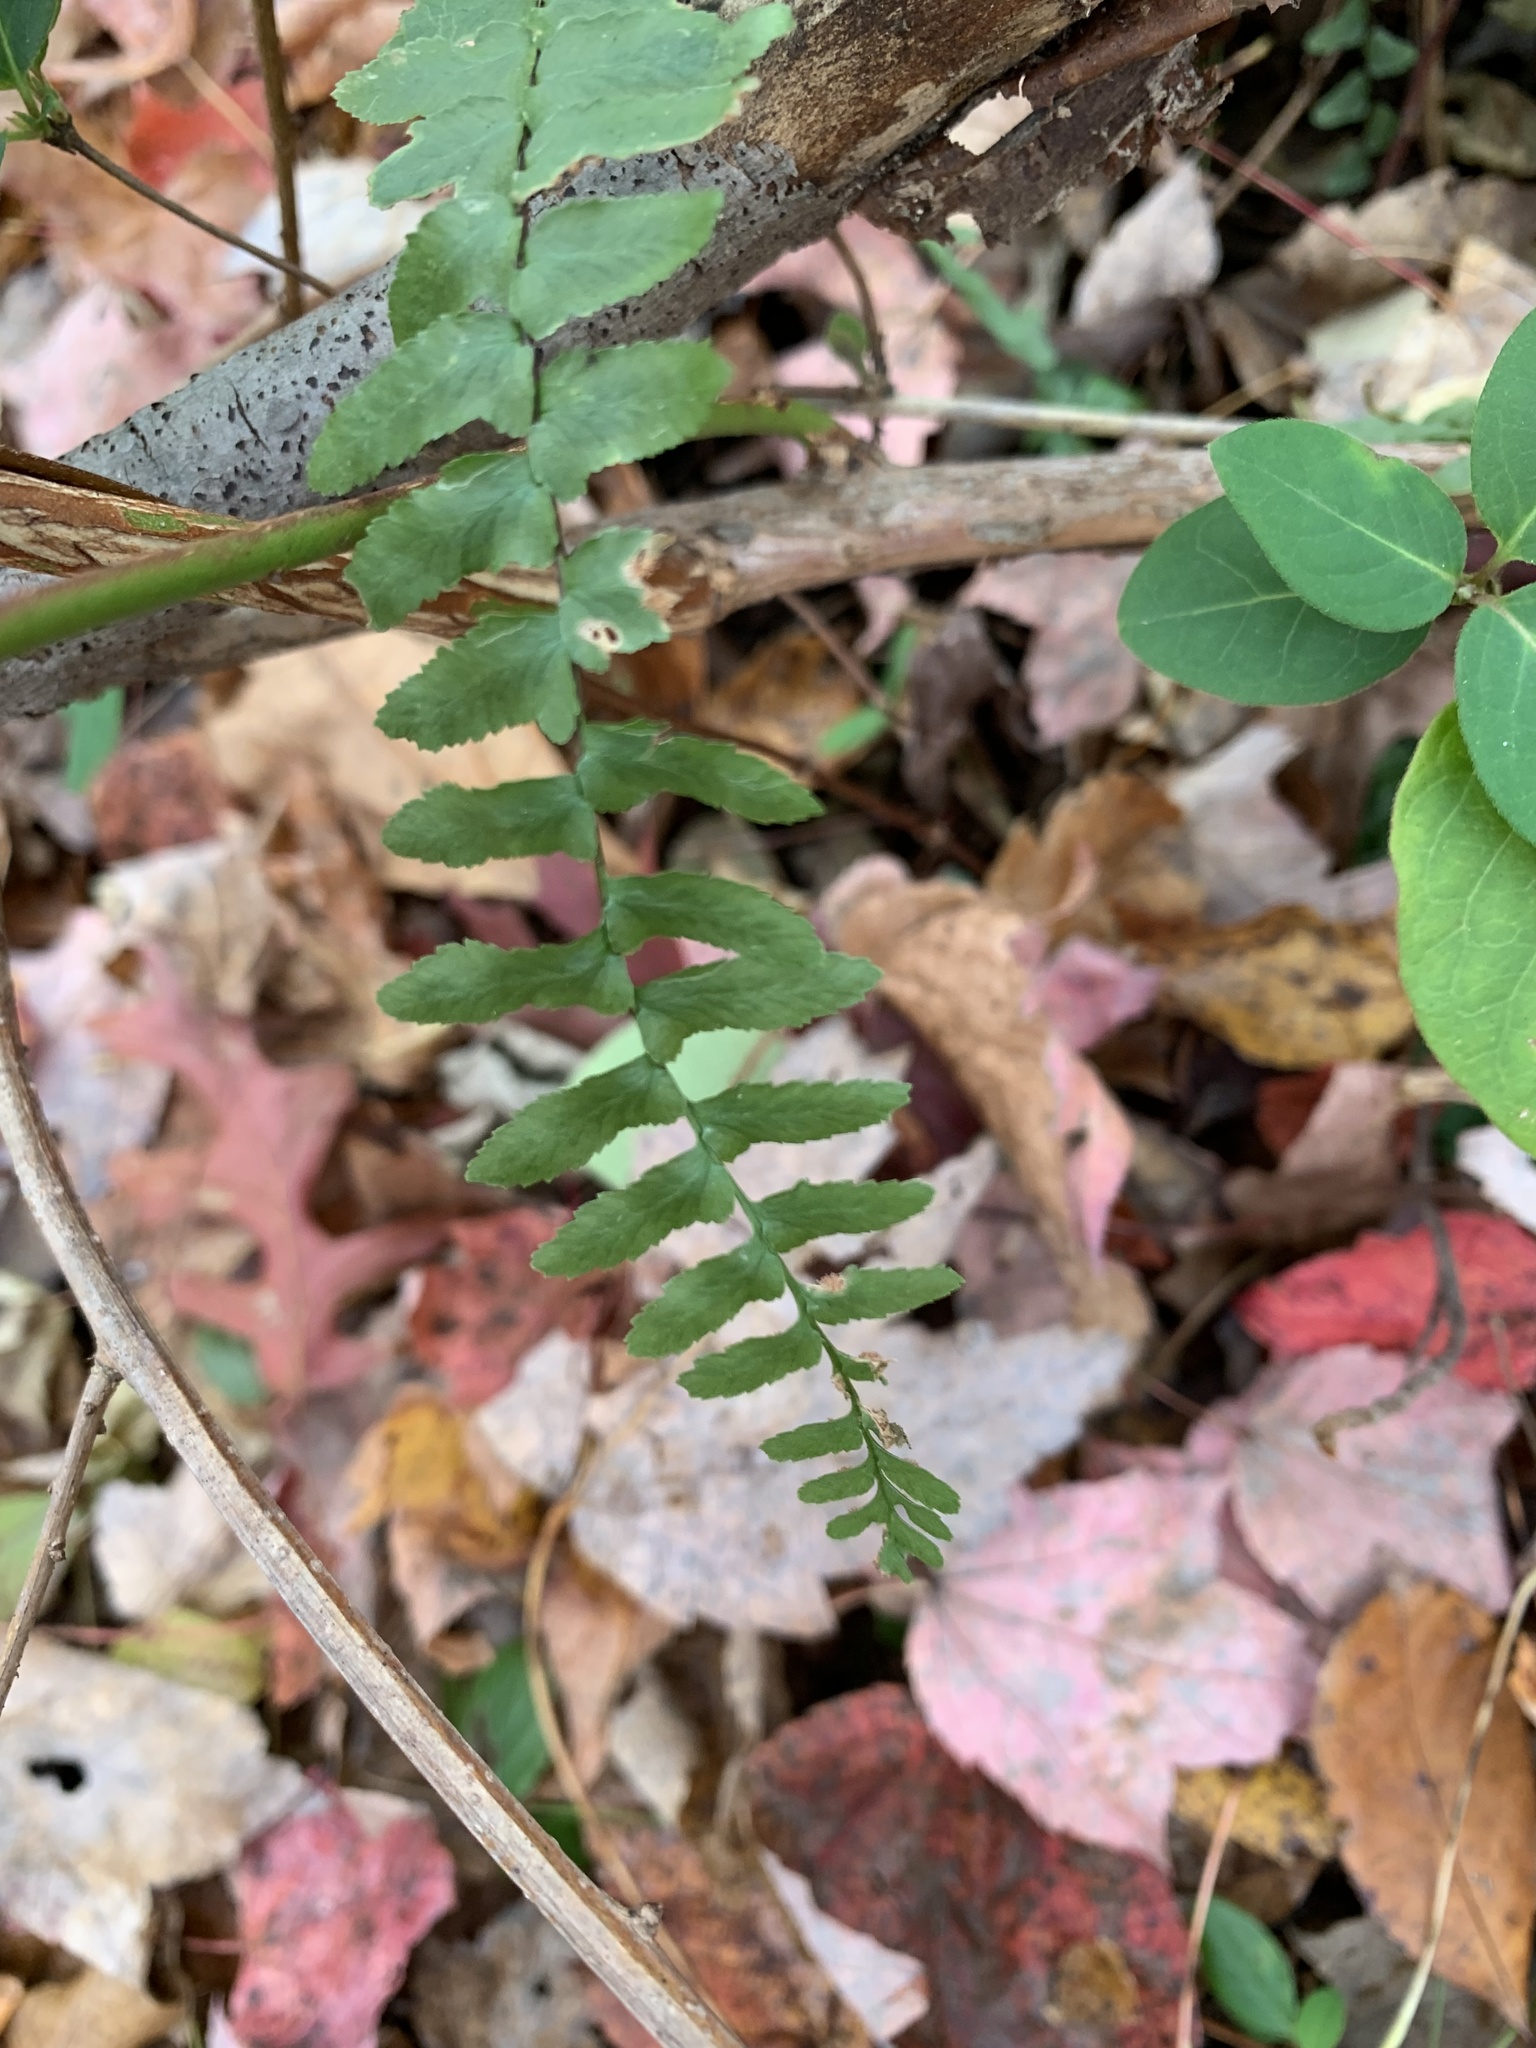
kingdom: Plantae
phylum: Tracheophyta
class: Polypodiopsida
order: Polypodiales
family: Aspleniaceae
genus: Asplenium
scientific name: Asplenium platyneuron
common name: Ebony spleenwort
